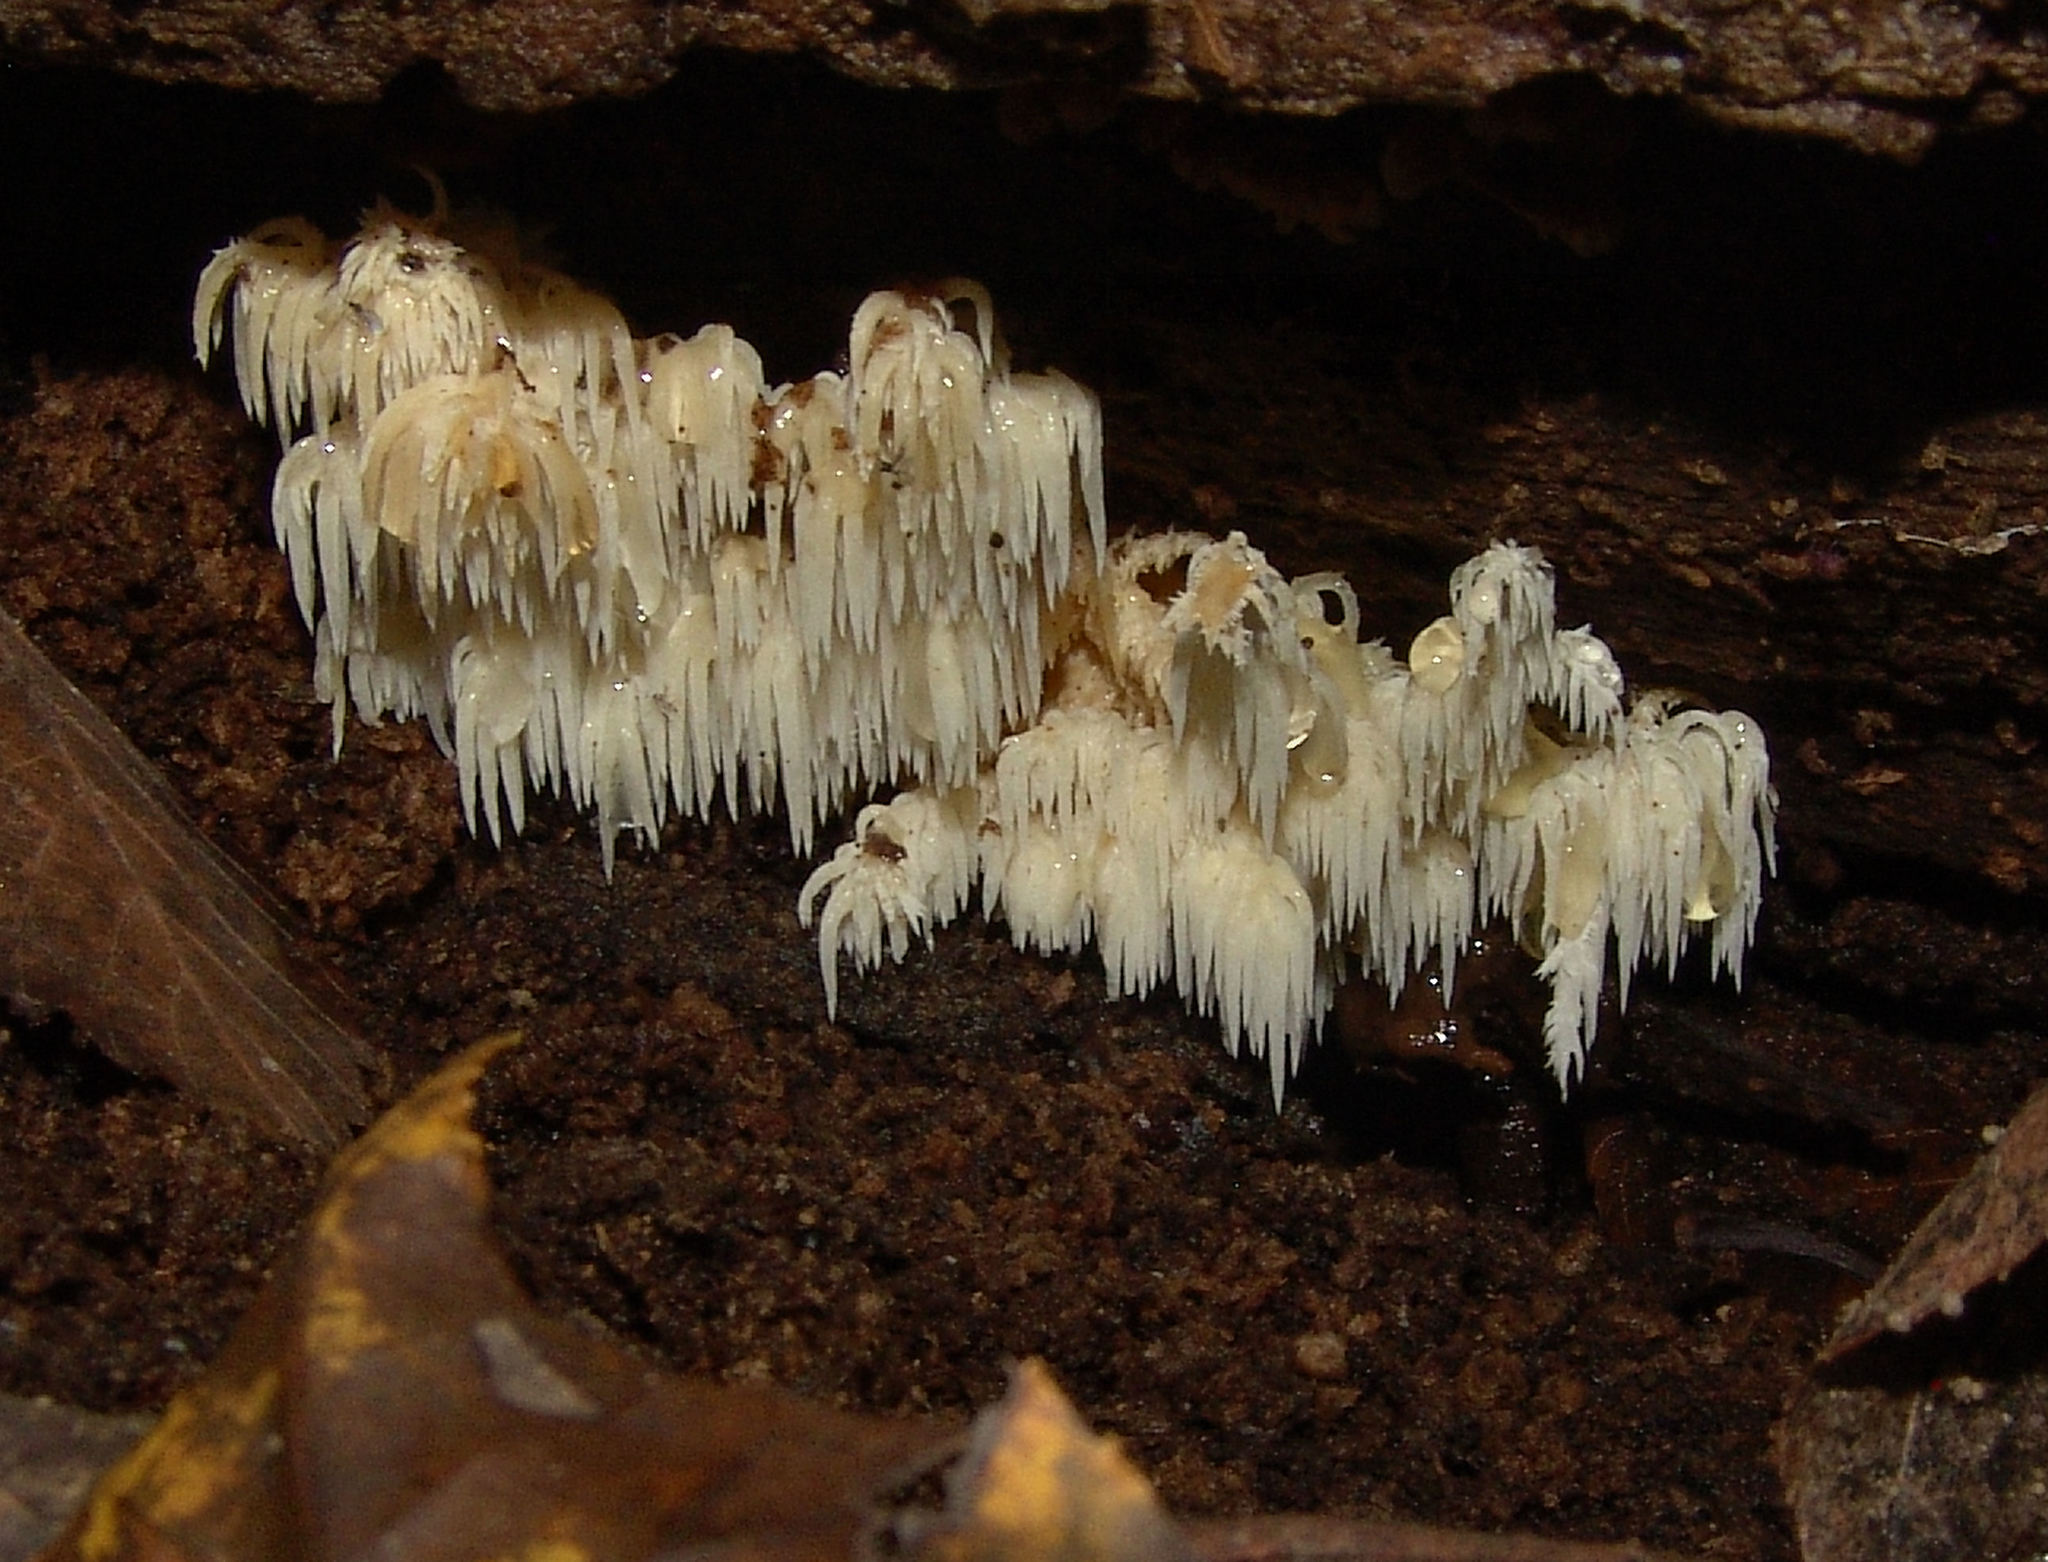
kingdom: Fungi
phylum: Basidiomycota
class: Agaricomycetes
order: Russulales
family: Hericiaceae
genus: Hericium
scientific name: Hericium americanum
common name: Bear's head tooth
